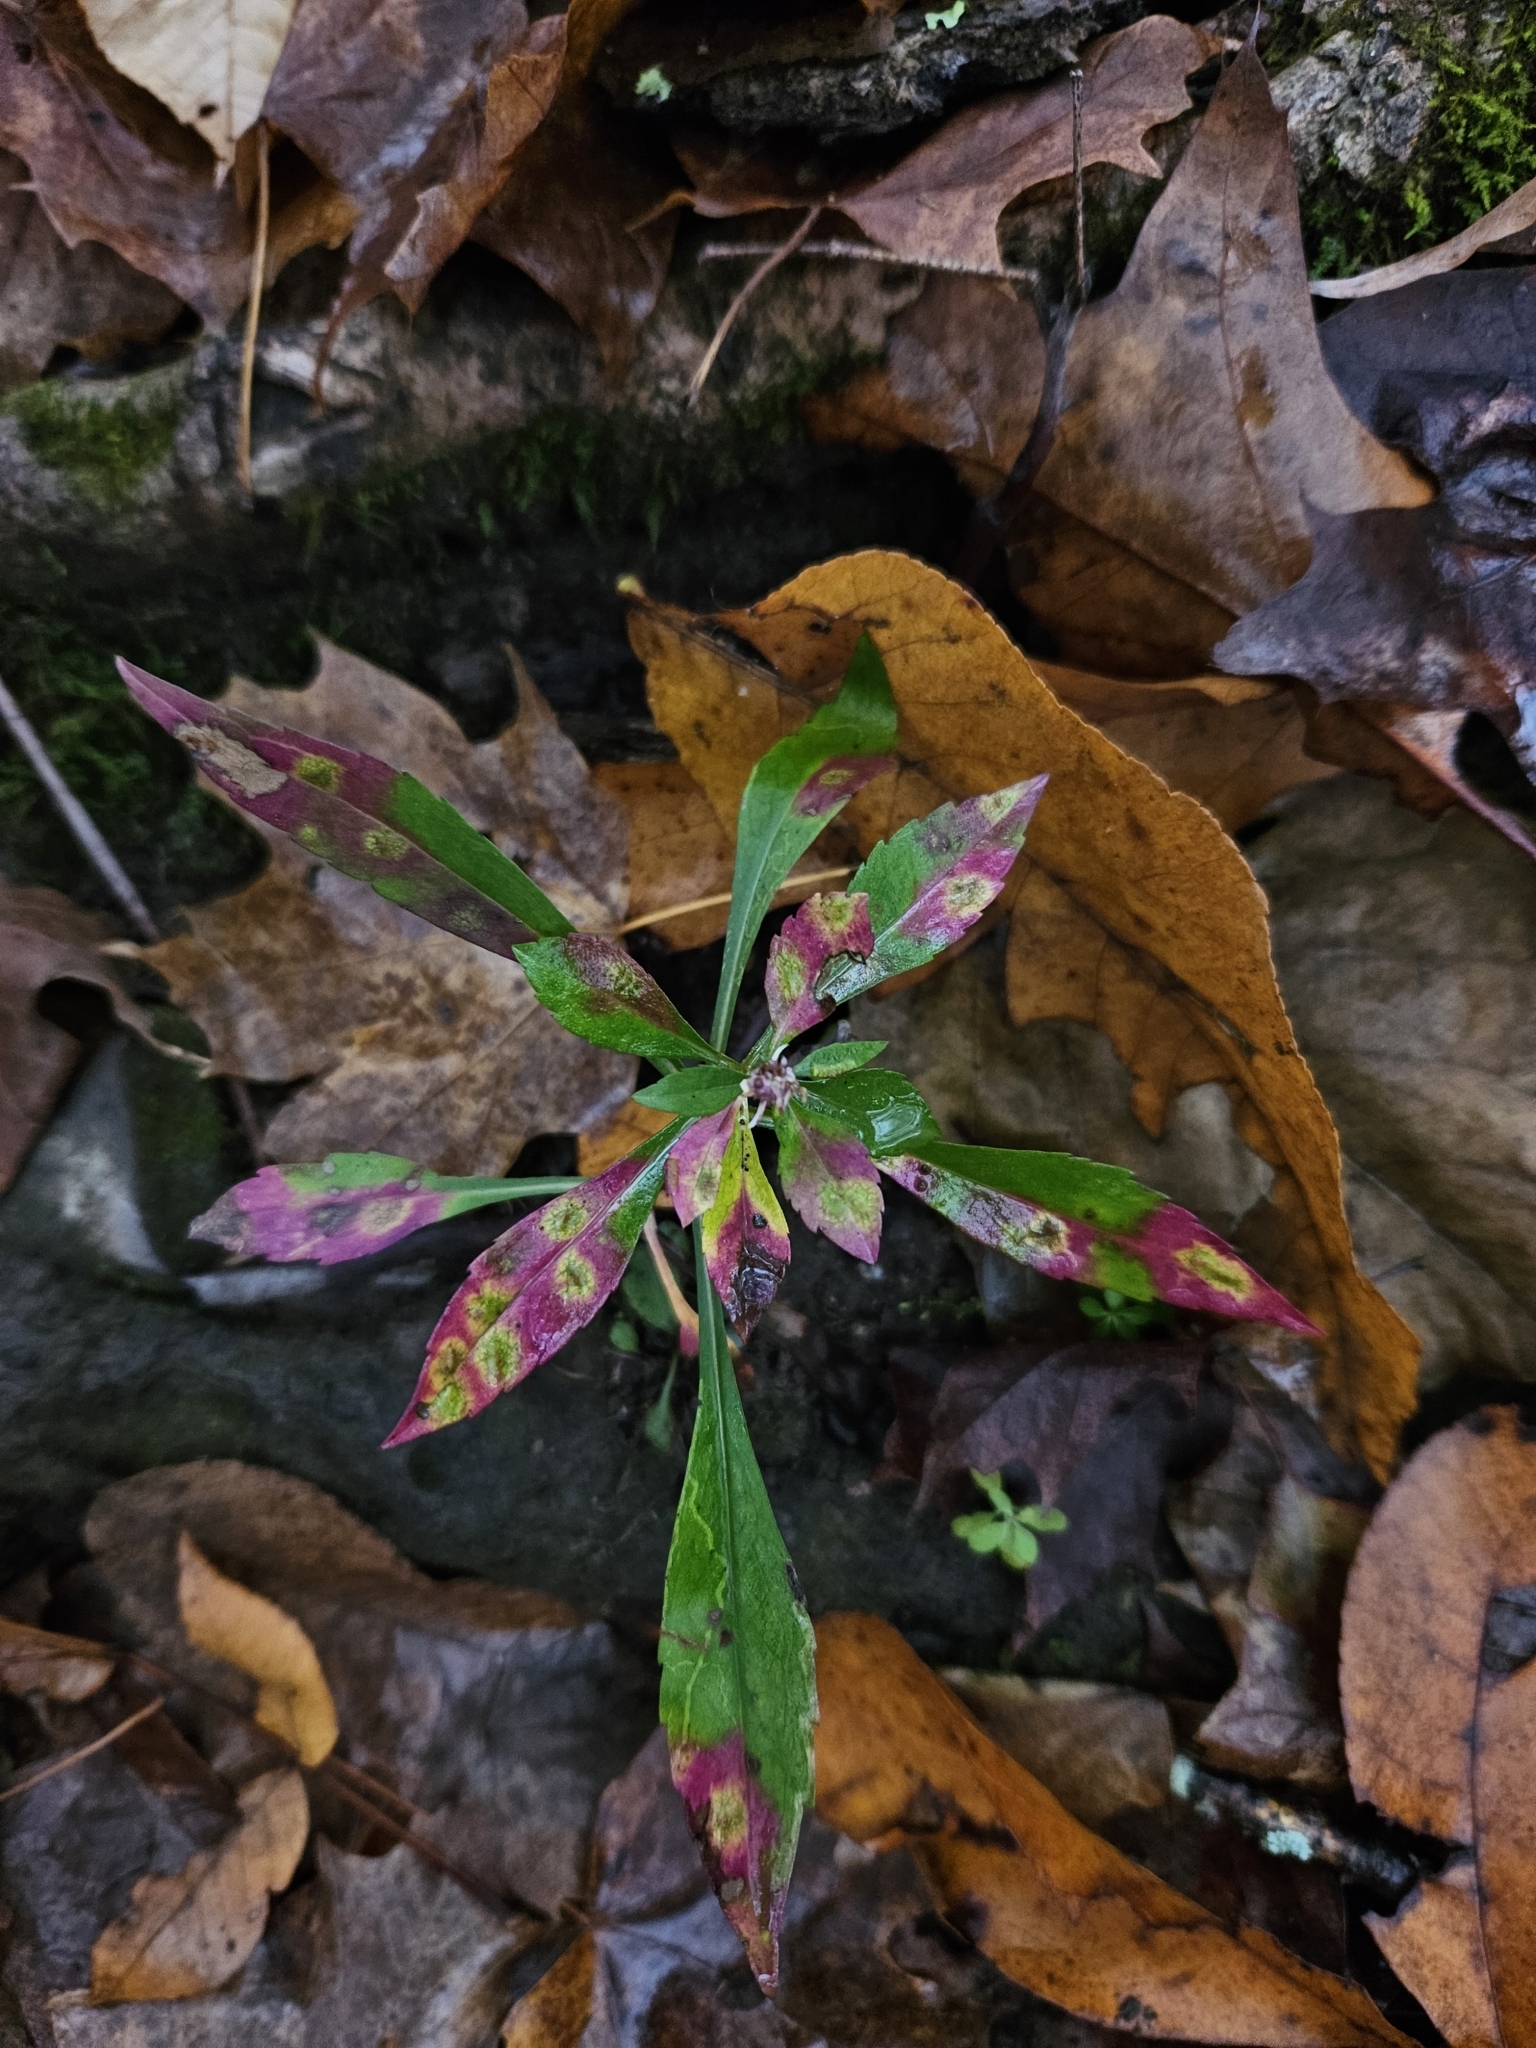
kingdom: Plantae
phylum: Tracheophyta
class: Magnoliopsida
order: Asterales
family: Asteraceae
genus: Symphyotrichum
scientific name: Symphyotrichum lateriflorum
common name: Calico aster
